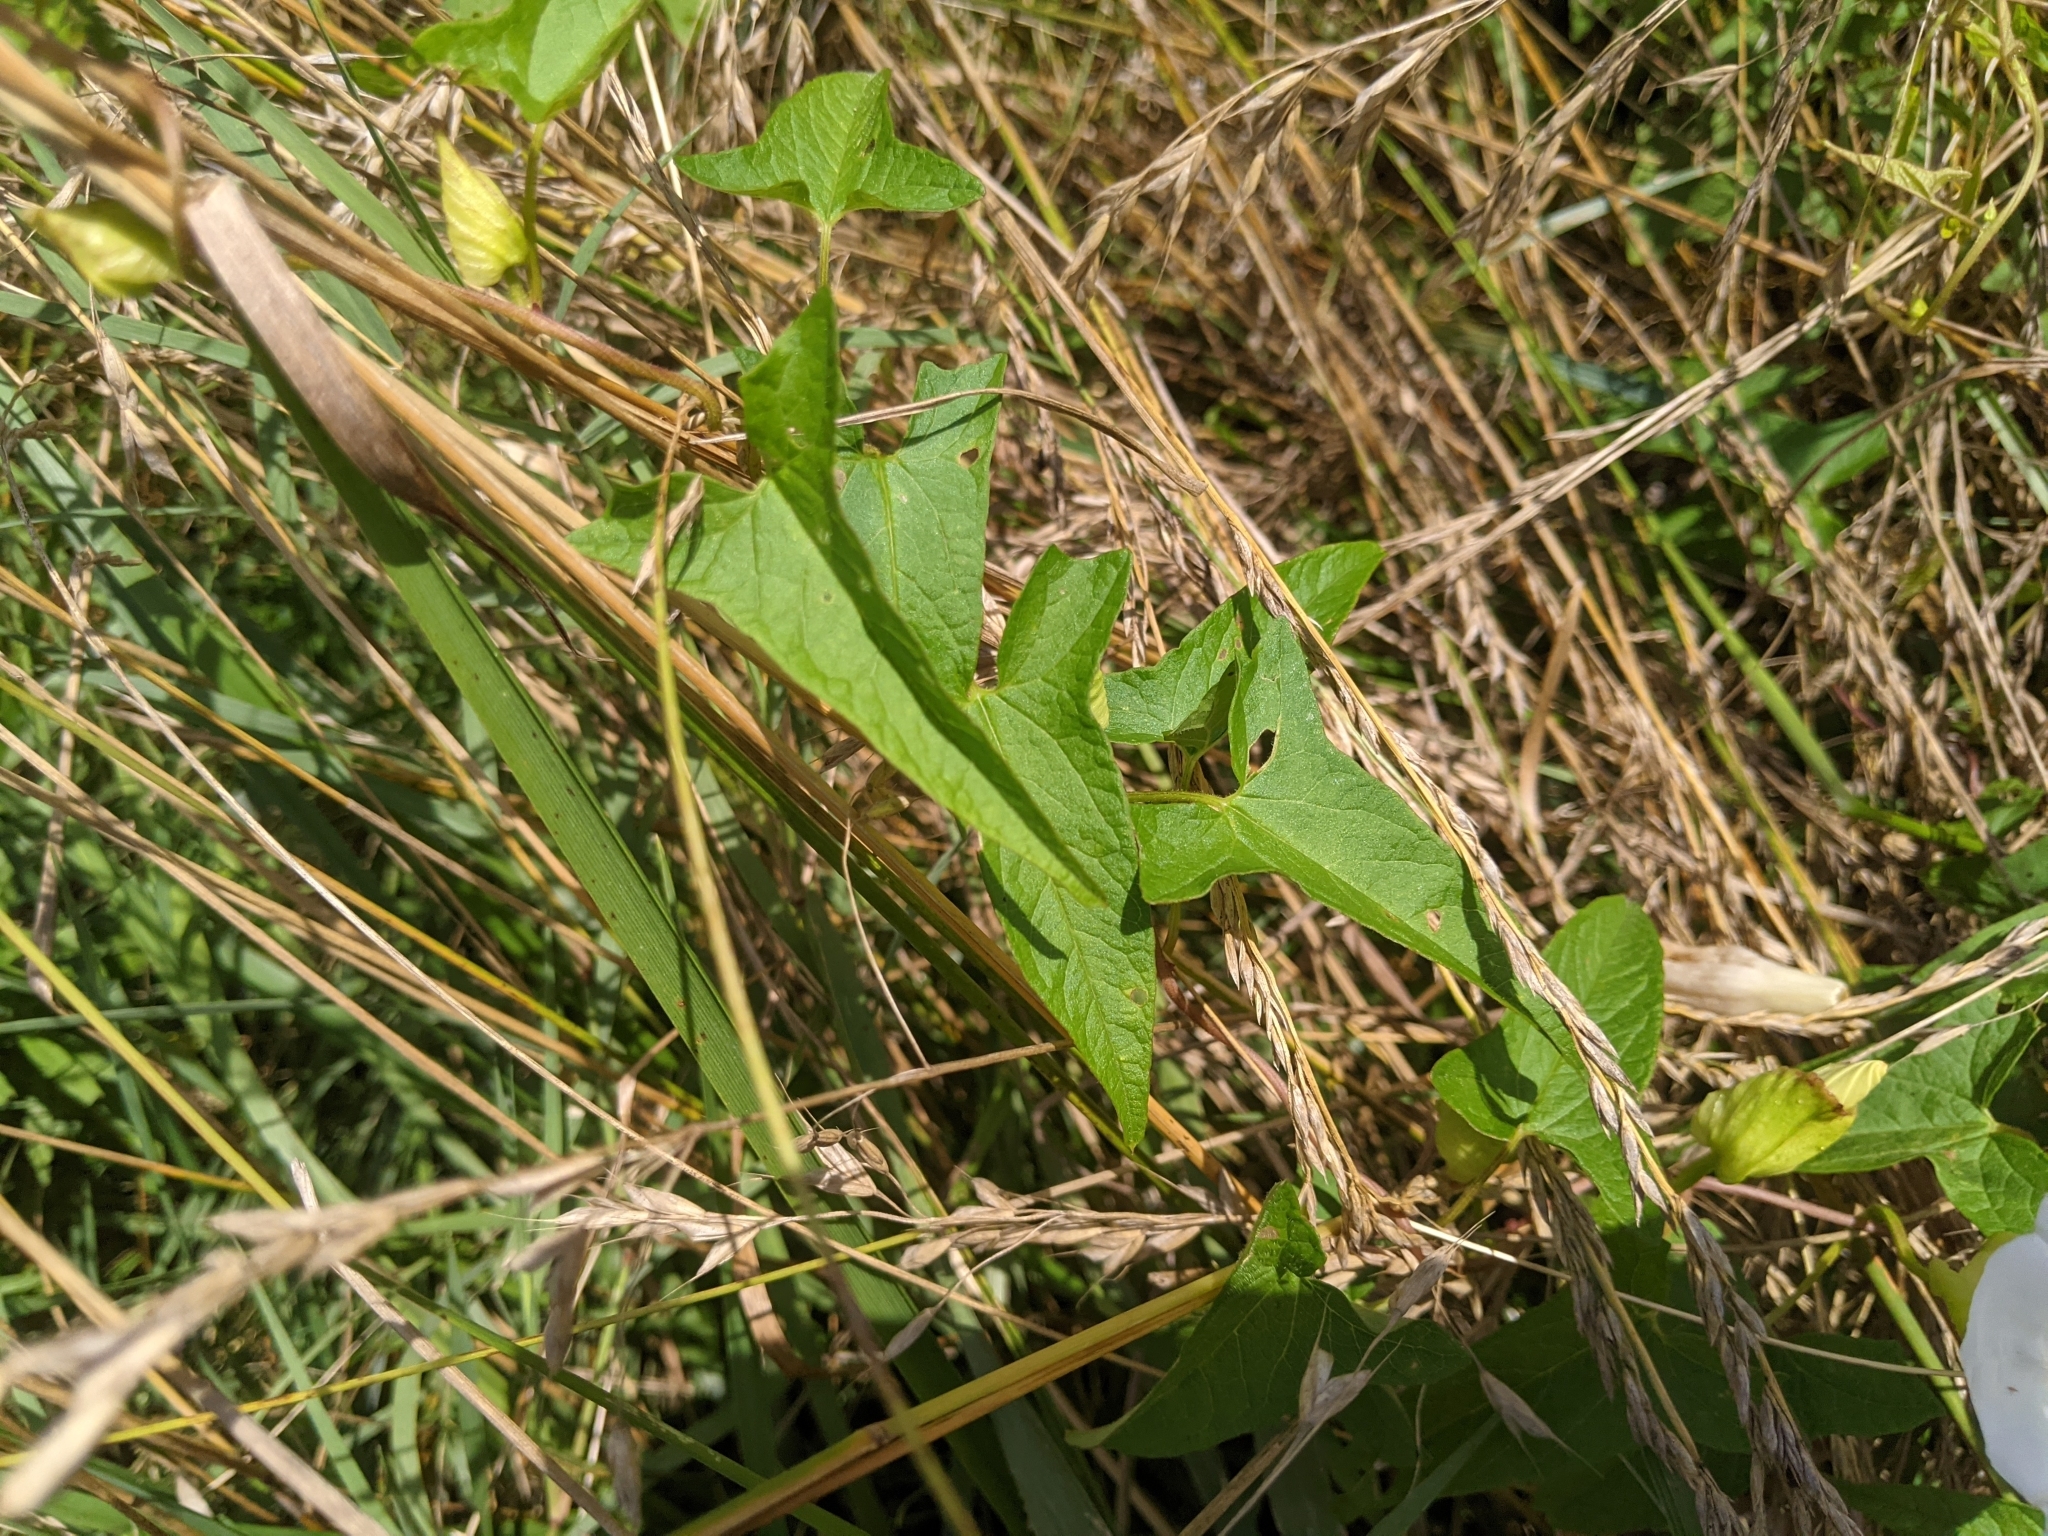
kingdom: Plantae
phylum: Tracheophyta
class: Magnoliopsida
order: Solanales
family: Convolvulaceae
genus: Calystegia
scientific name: Calystegia sepium
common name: Hedge bindweed
